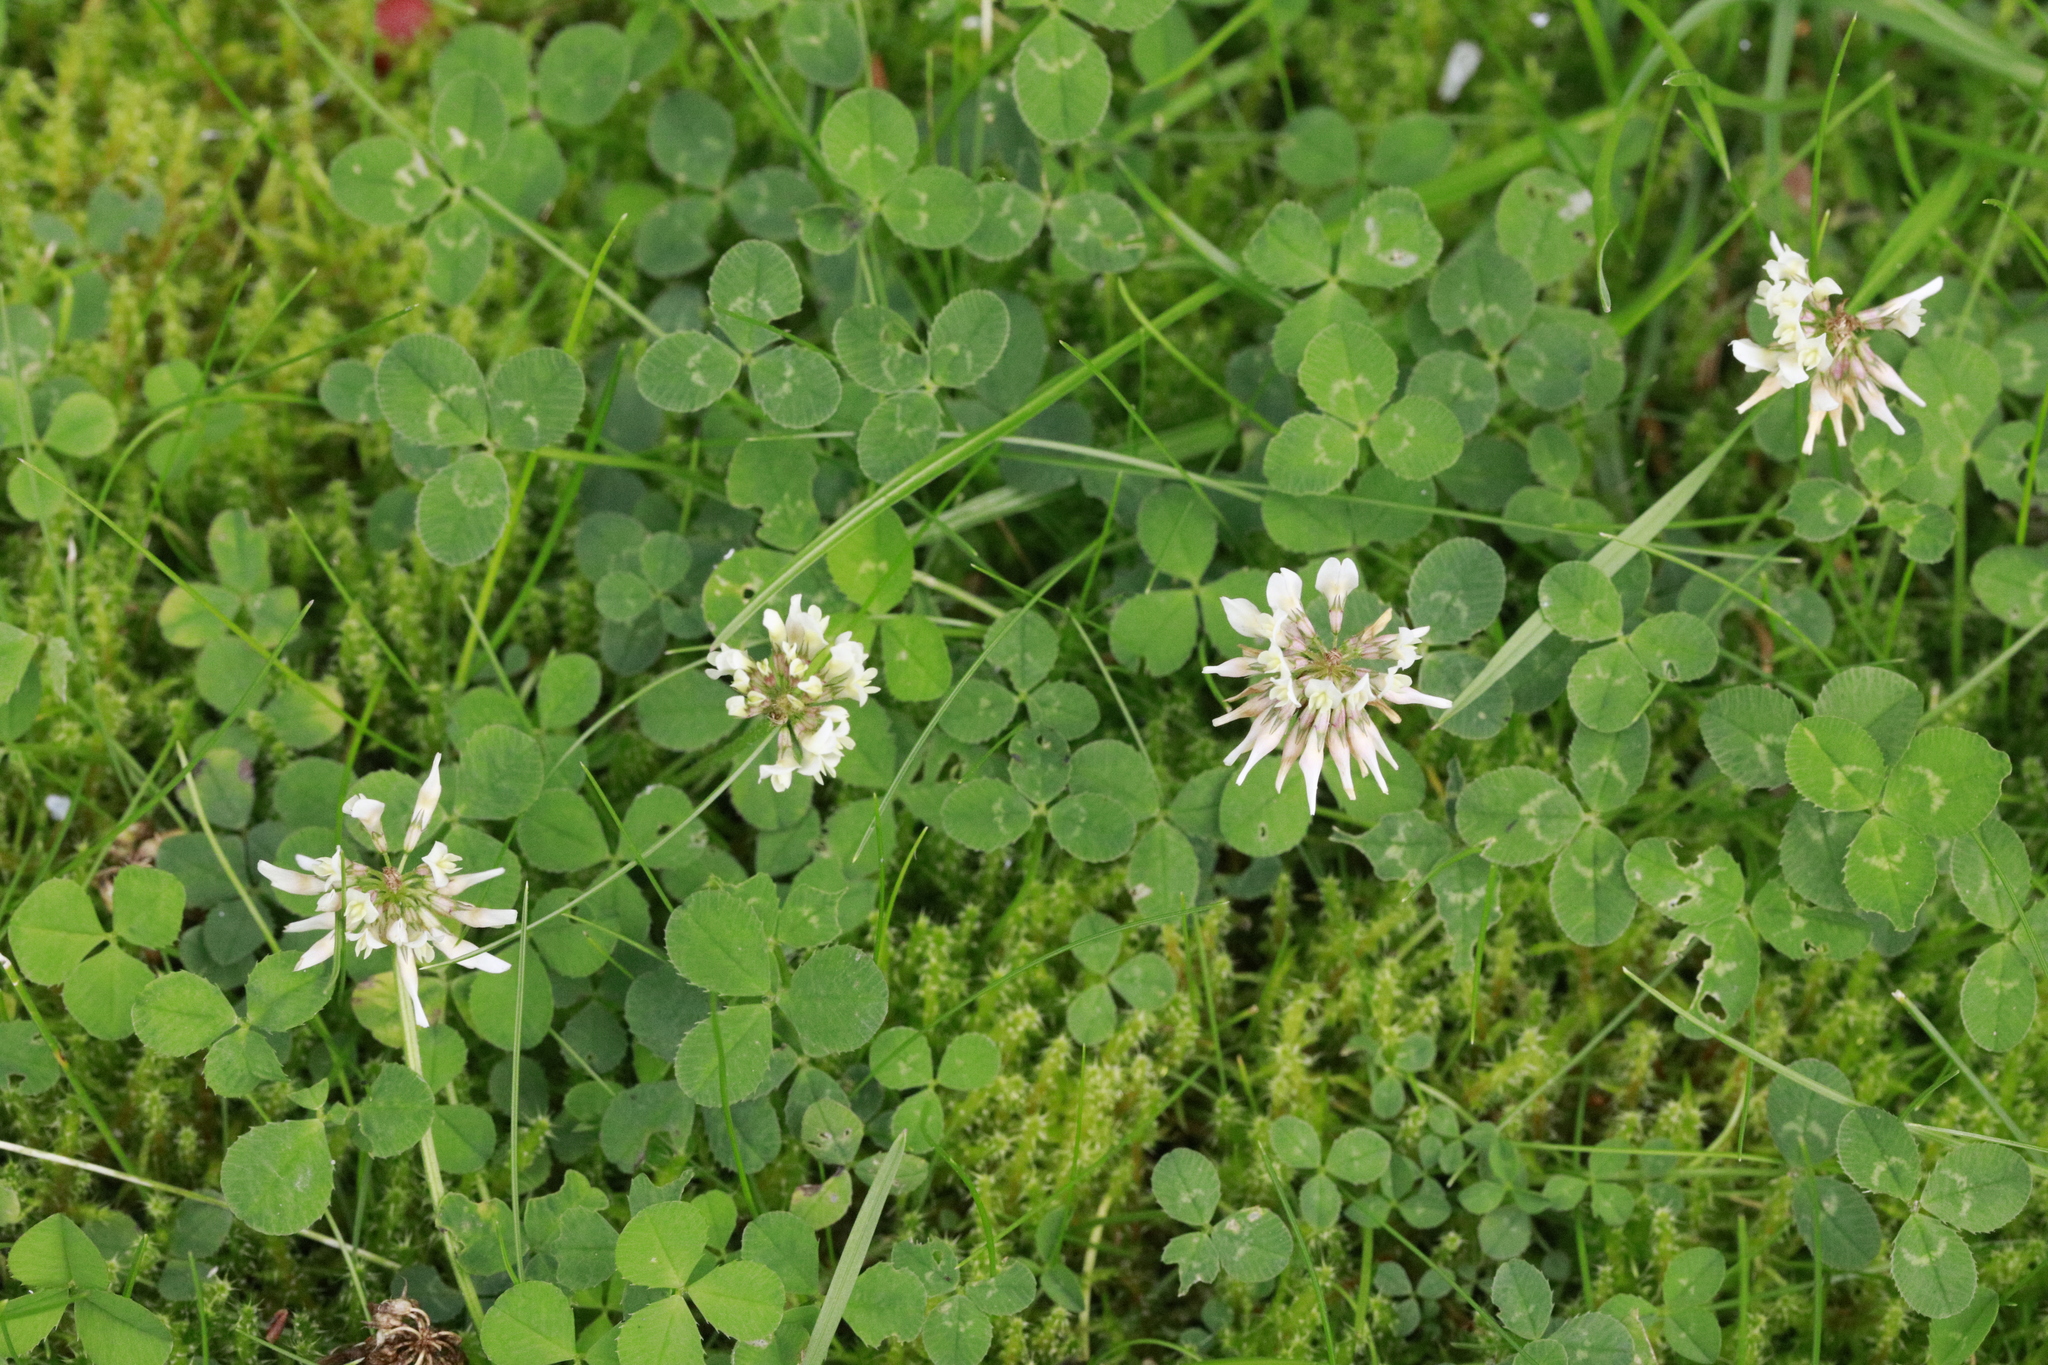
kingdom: Plantae
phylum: Tracheophyta
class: Magnoliopsida
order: Fabales
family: Fabaceae
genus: Trifolium
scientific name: Trifolium repens
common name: White clover
